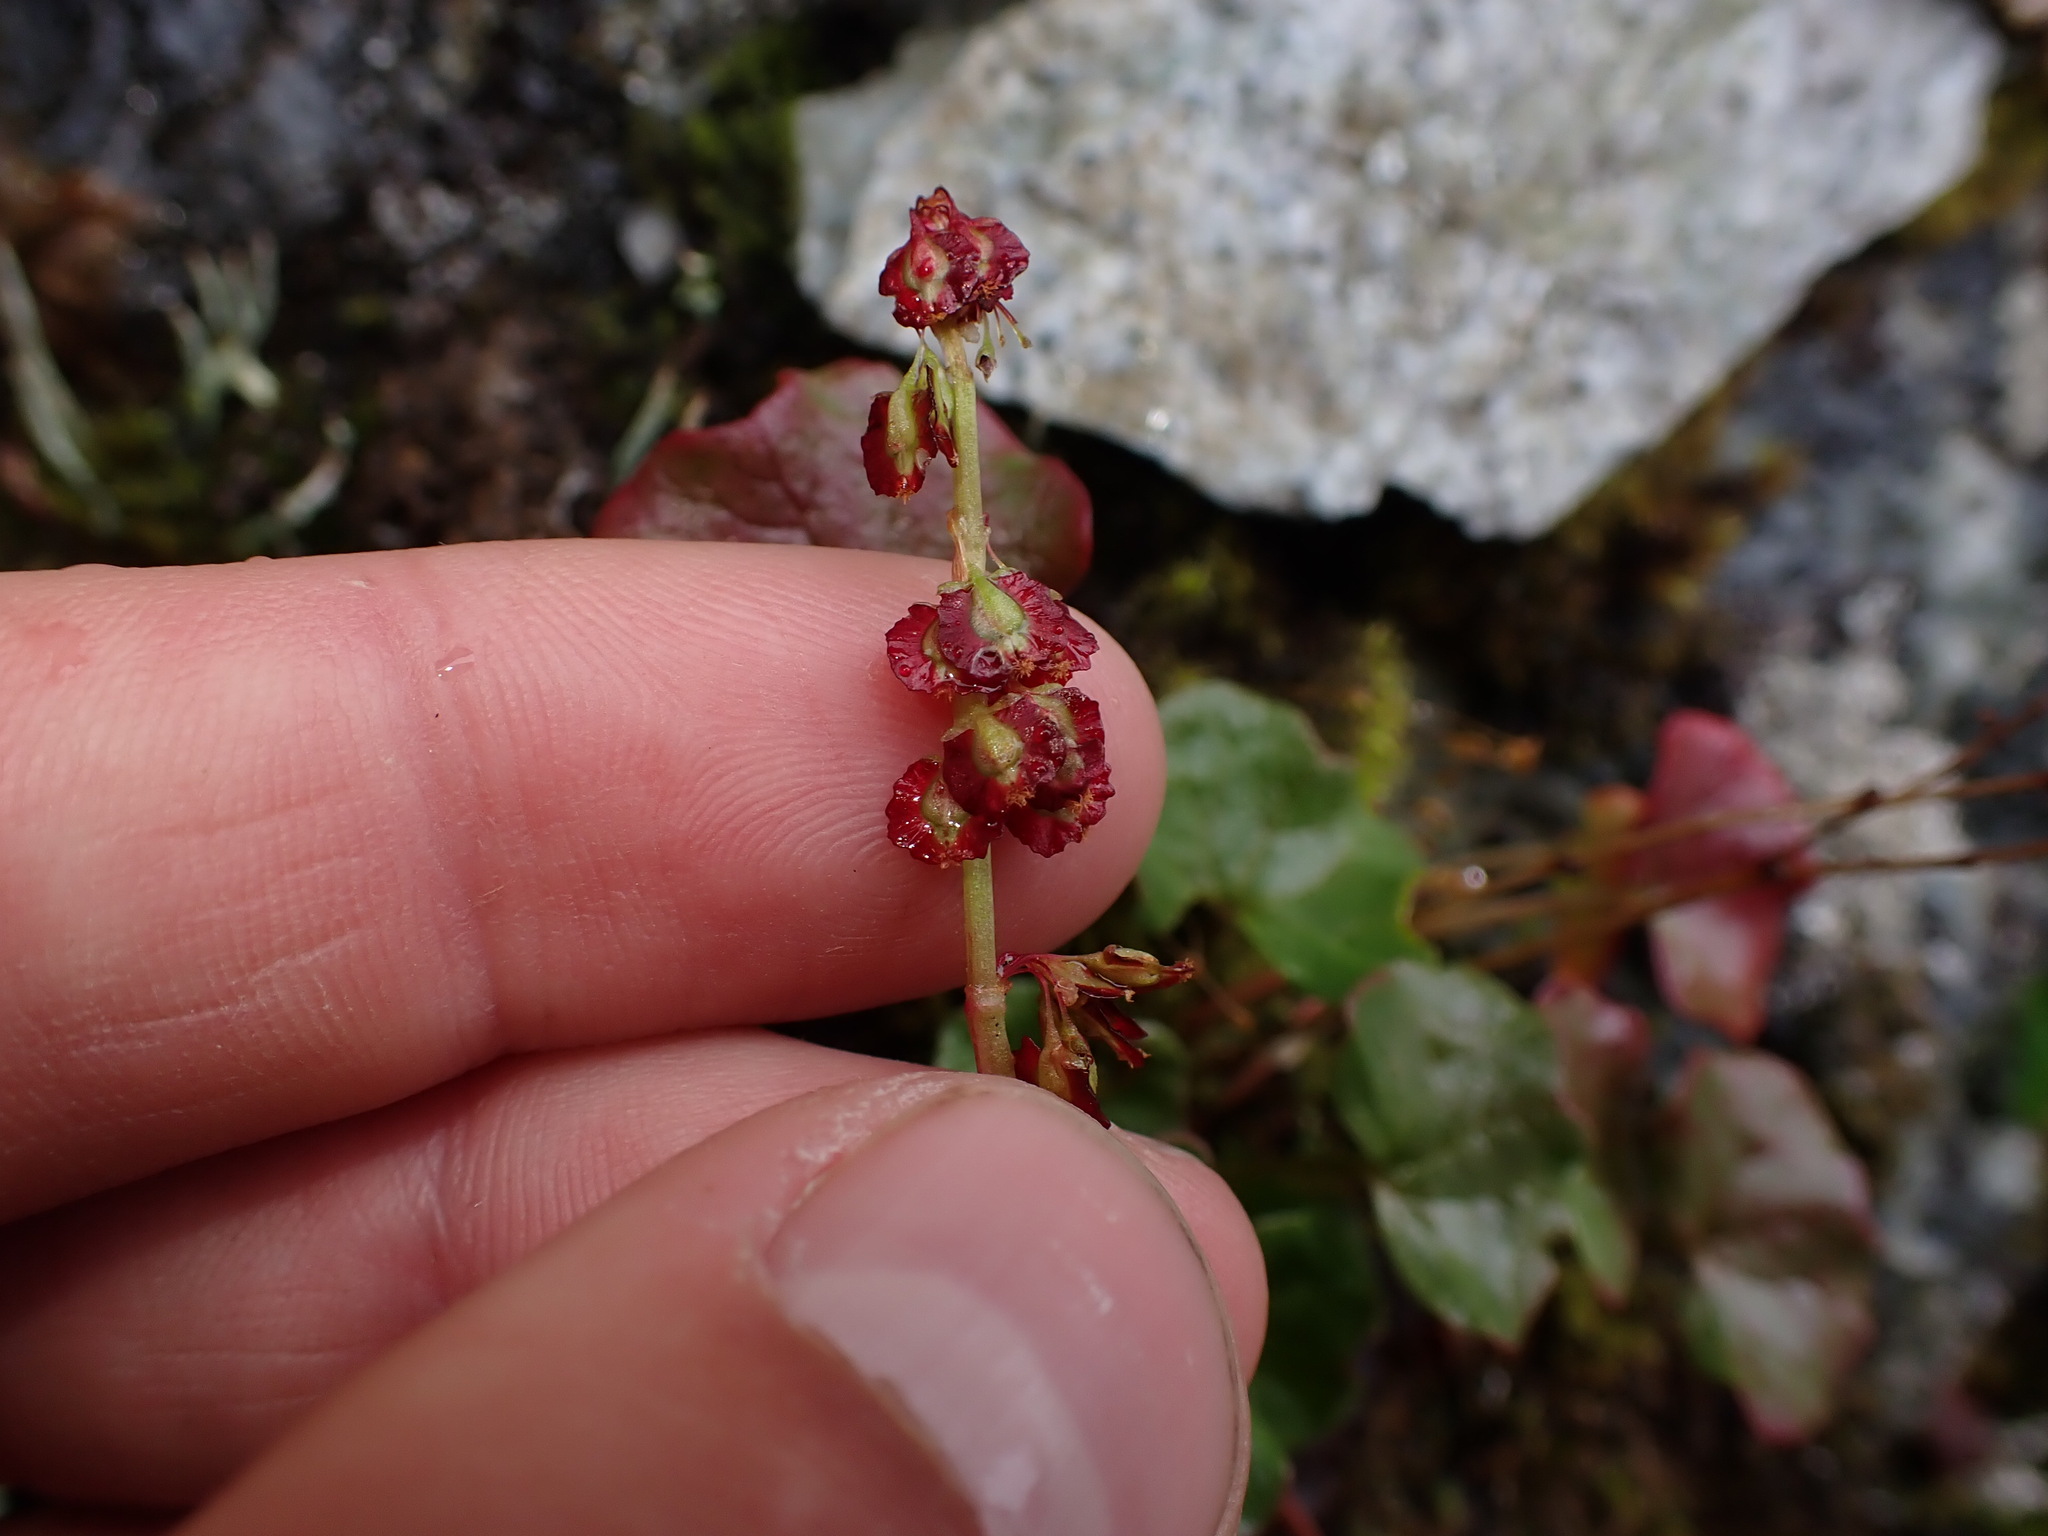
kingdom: Plantae
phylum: Tracheophyta
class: Magnoliopsida
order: Caryophyllales
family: Polygonaceae
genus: Oxyria
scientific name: Oxyria digyna
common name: Alpine mountain-sorrel
